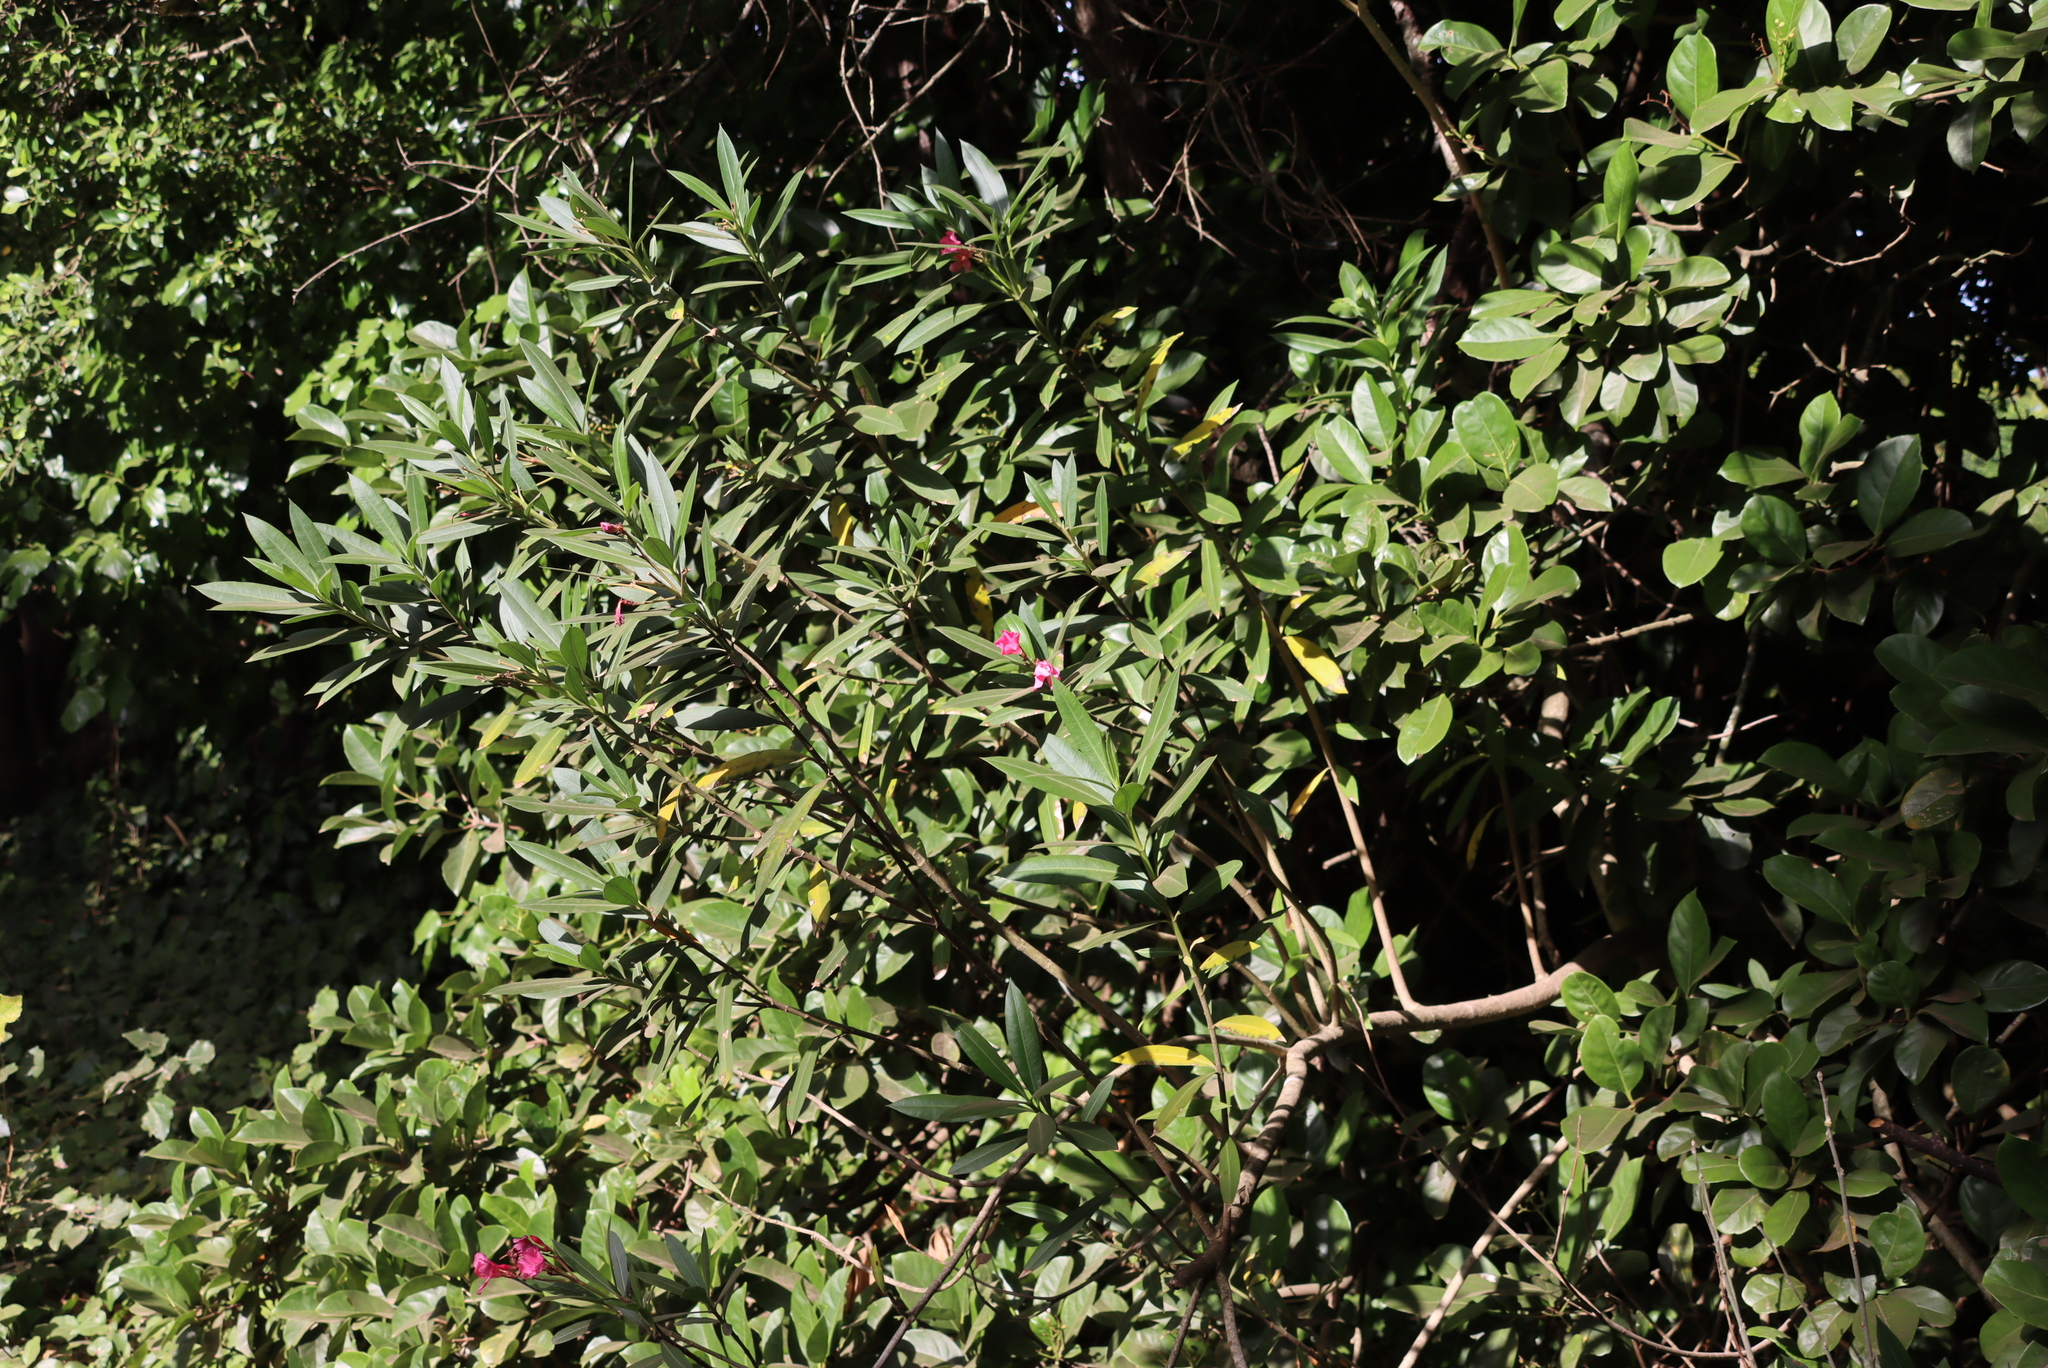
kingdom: Plantae
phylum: Tracheophyta
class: Magnoliopsida
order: Gentianales
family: Apocynaceae
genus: Nerium
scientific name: Nerium oleander
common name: Oleander
